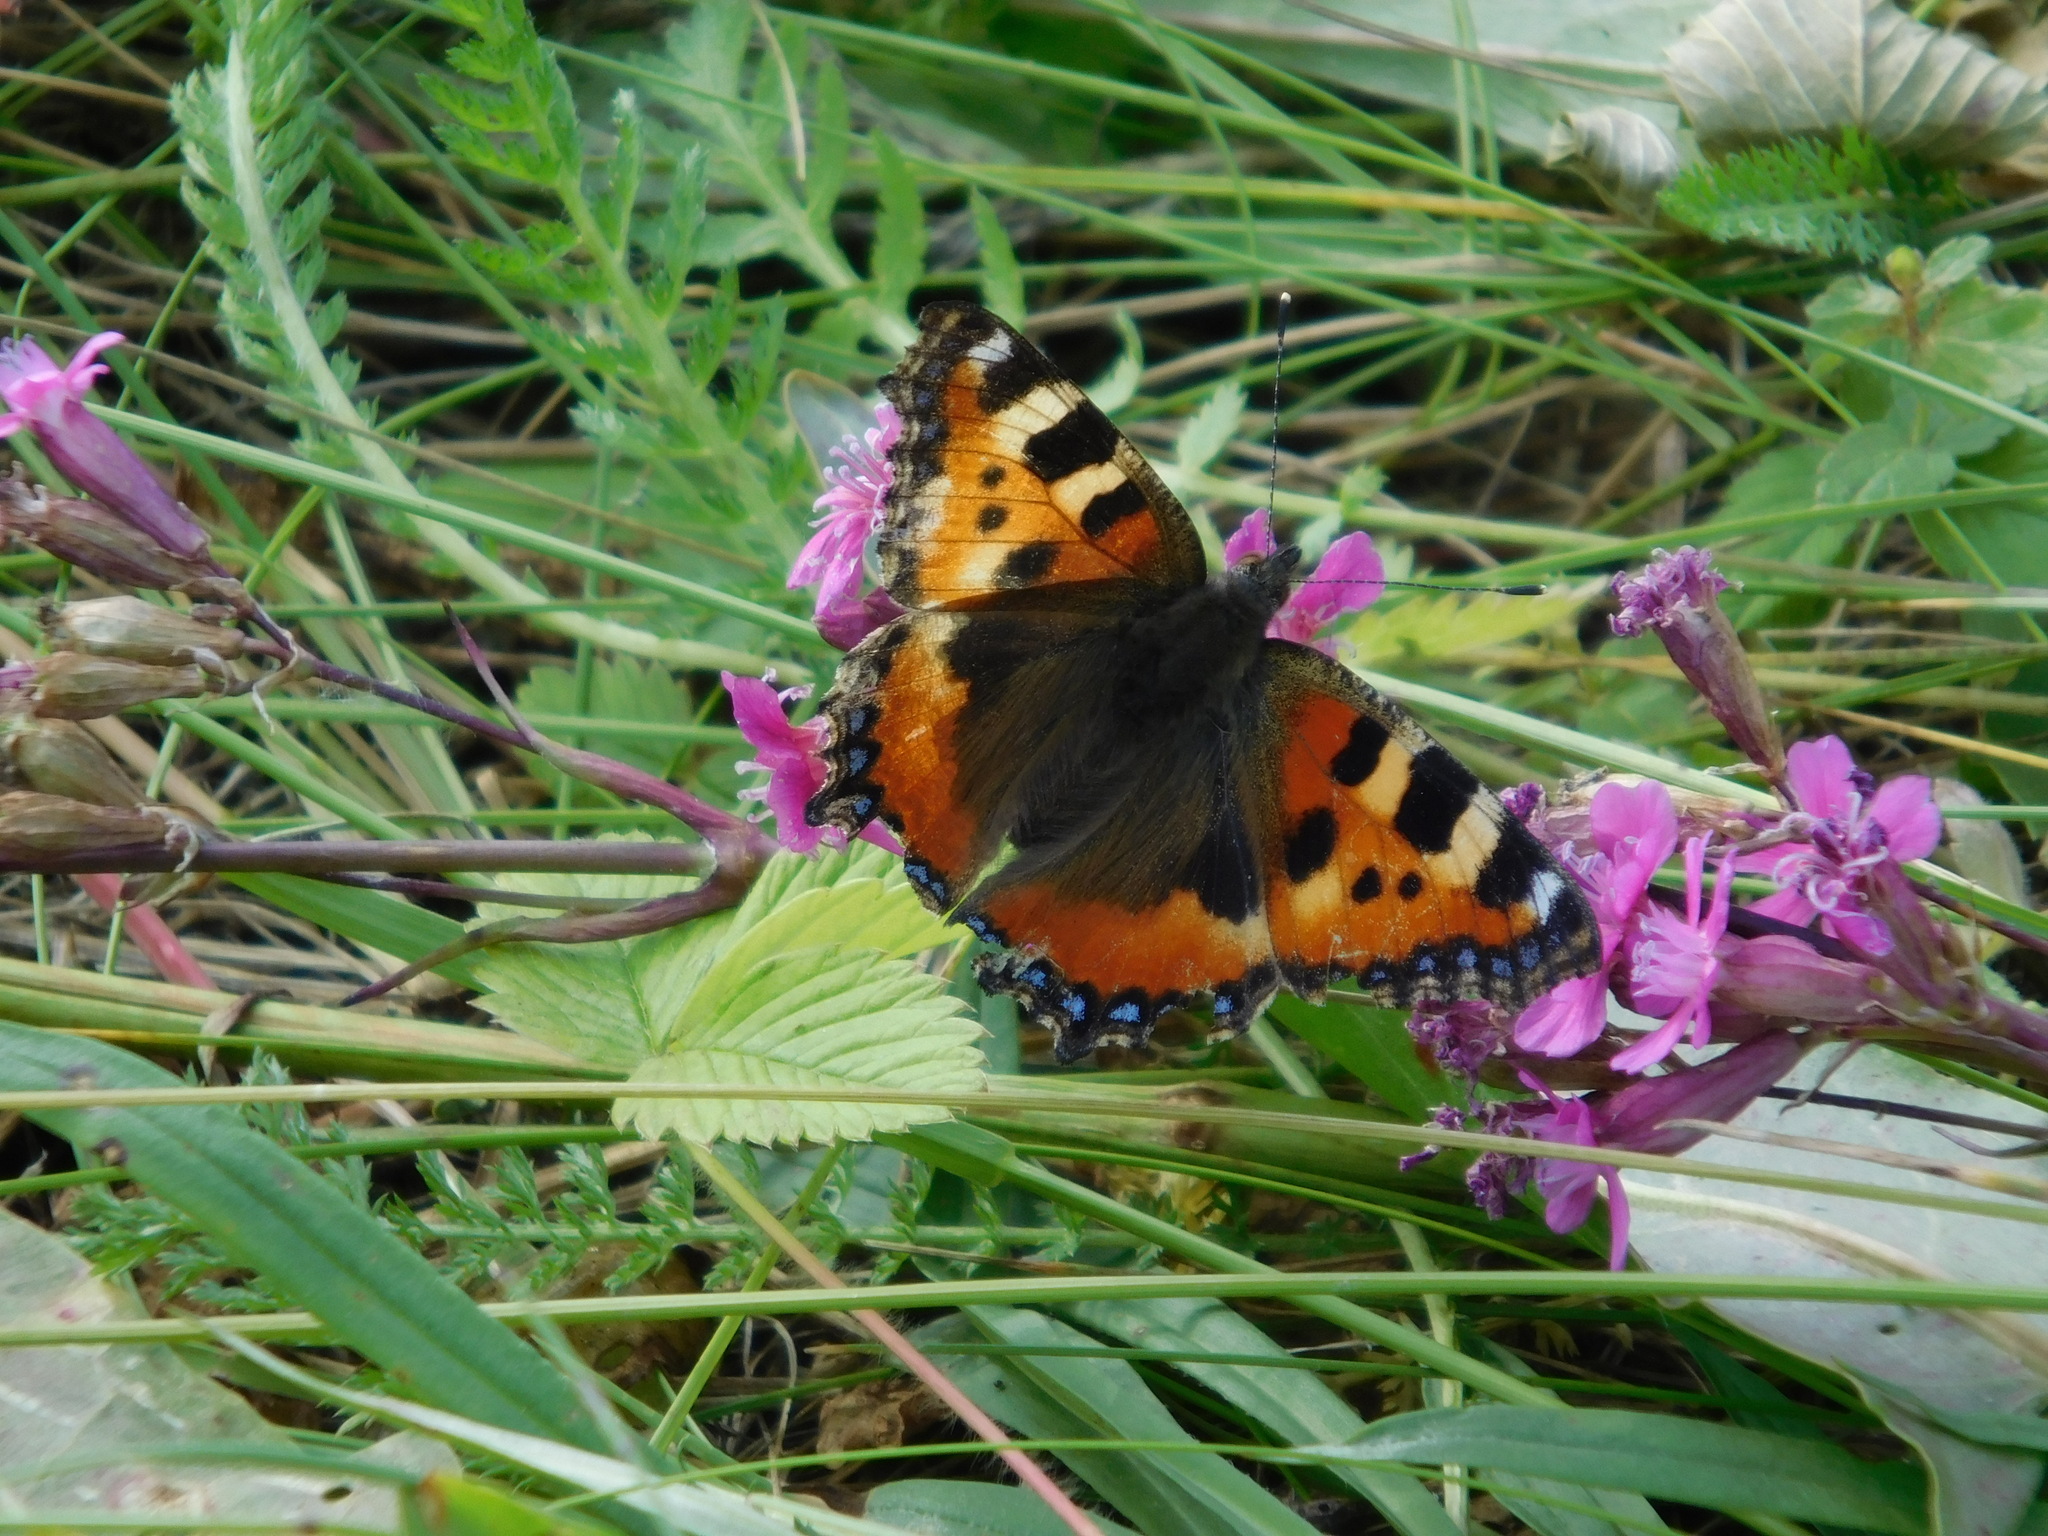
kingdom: Animalia
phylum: Arthropoda
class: Insecta
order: Lepidoptera
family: Nymphalidae
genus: Aglais
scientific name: Aglais urticae
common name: Small tortoiseshell
